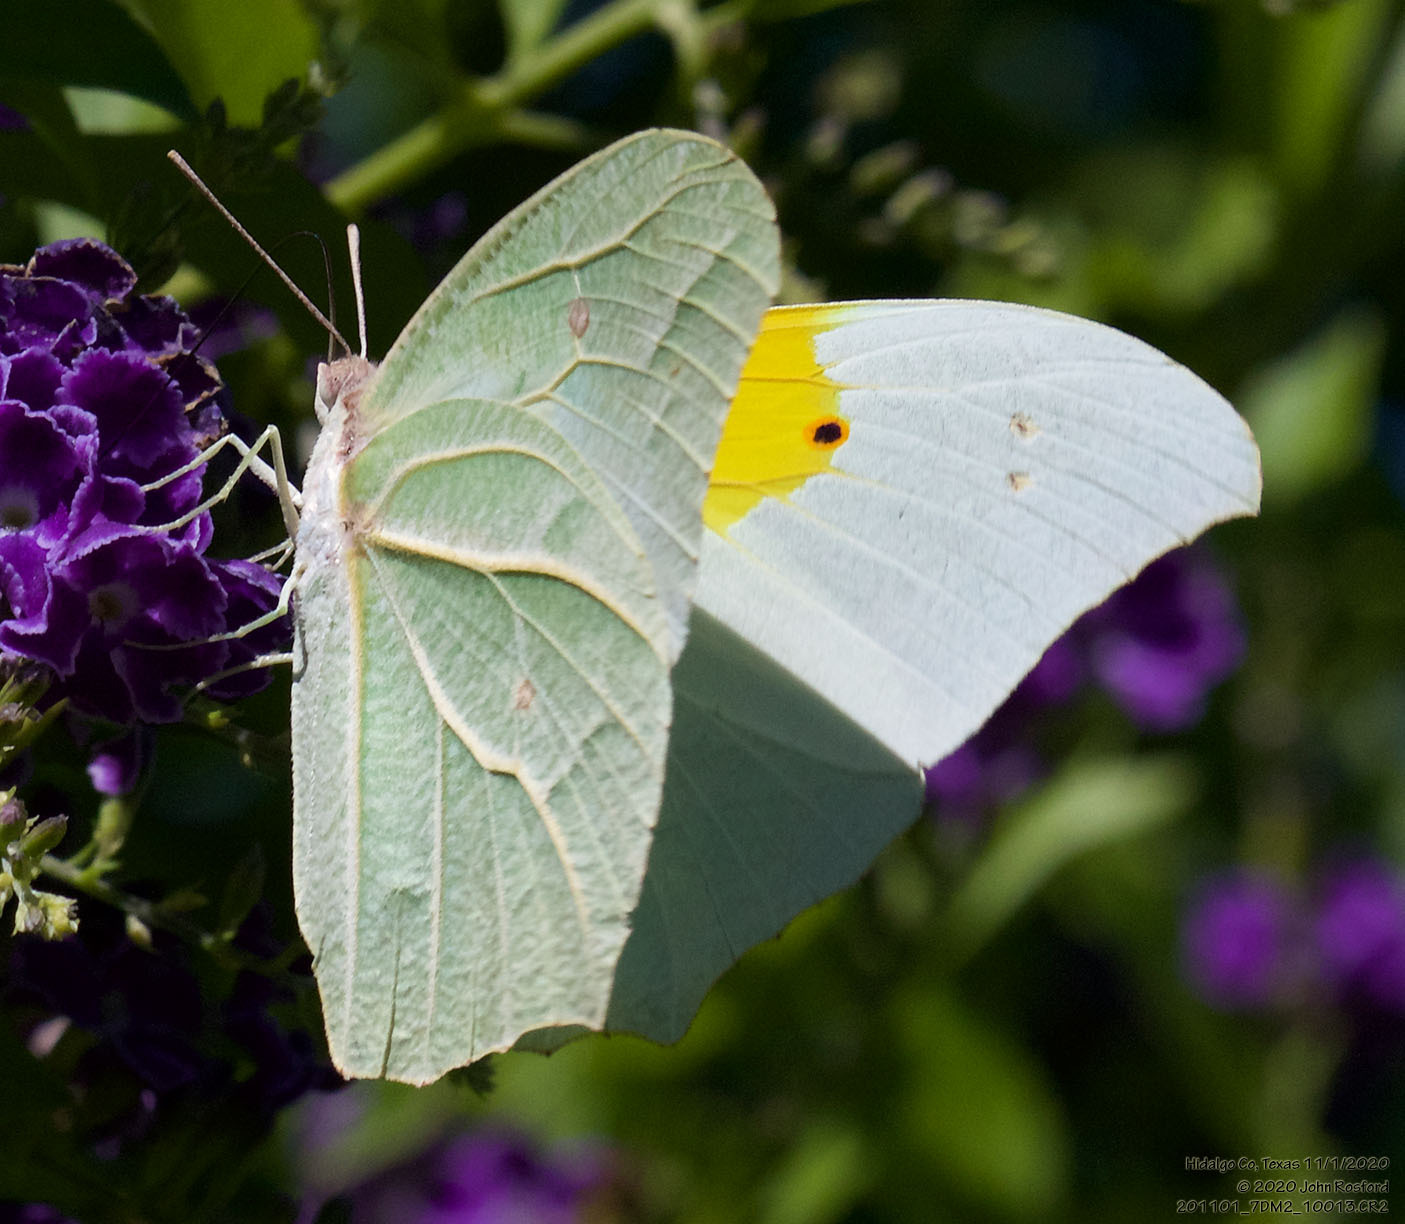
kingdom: Animalia
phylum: Arthropoda
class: Insecta
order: Lepidoptera
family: Pieridae
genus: Anteos
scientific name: Anteos clorinde
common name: White angled sulphur
